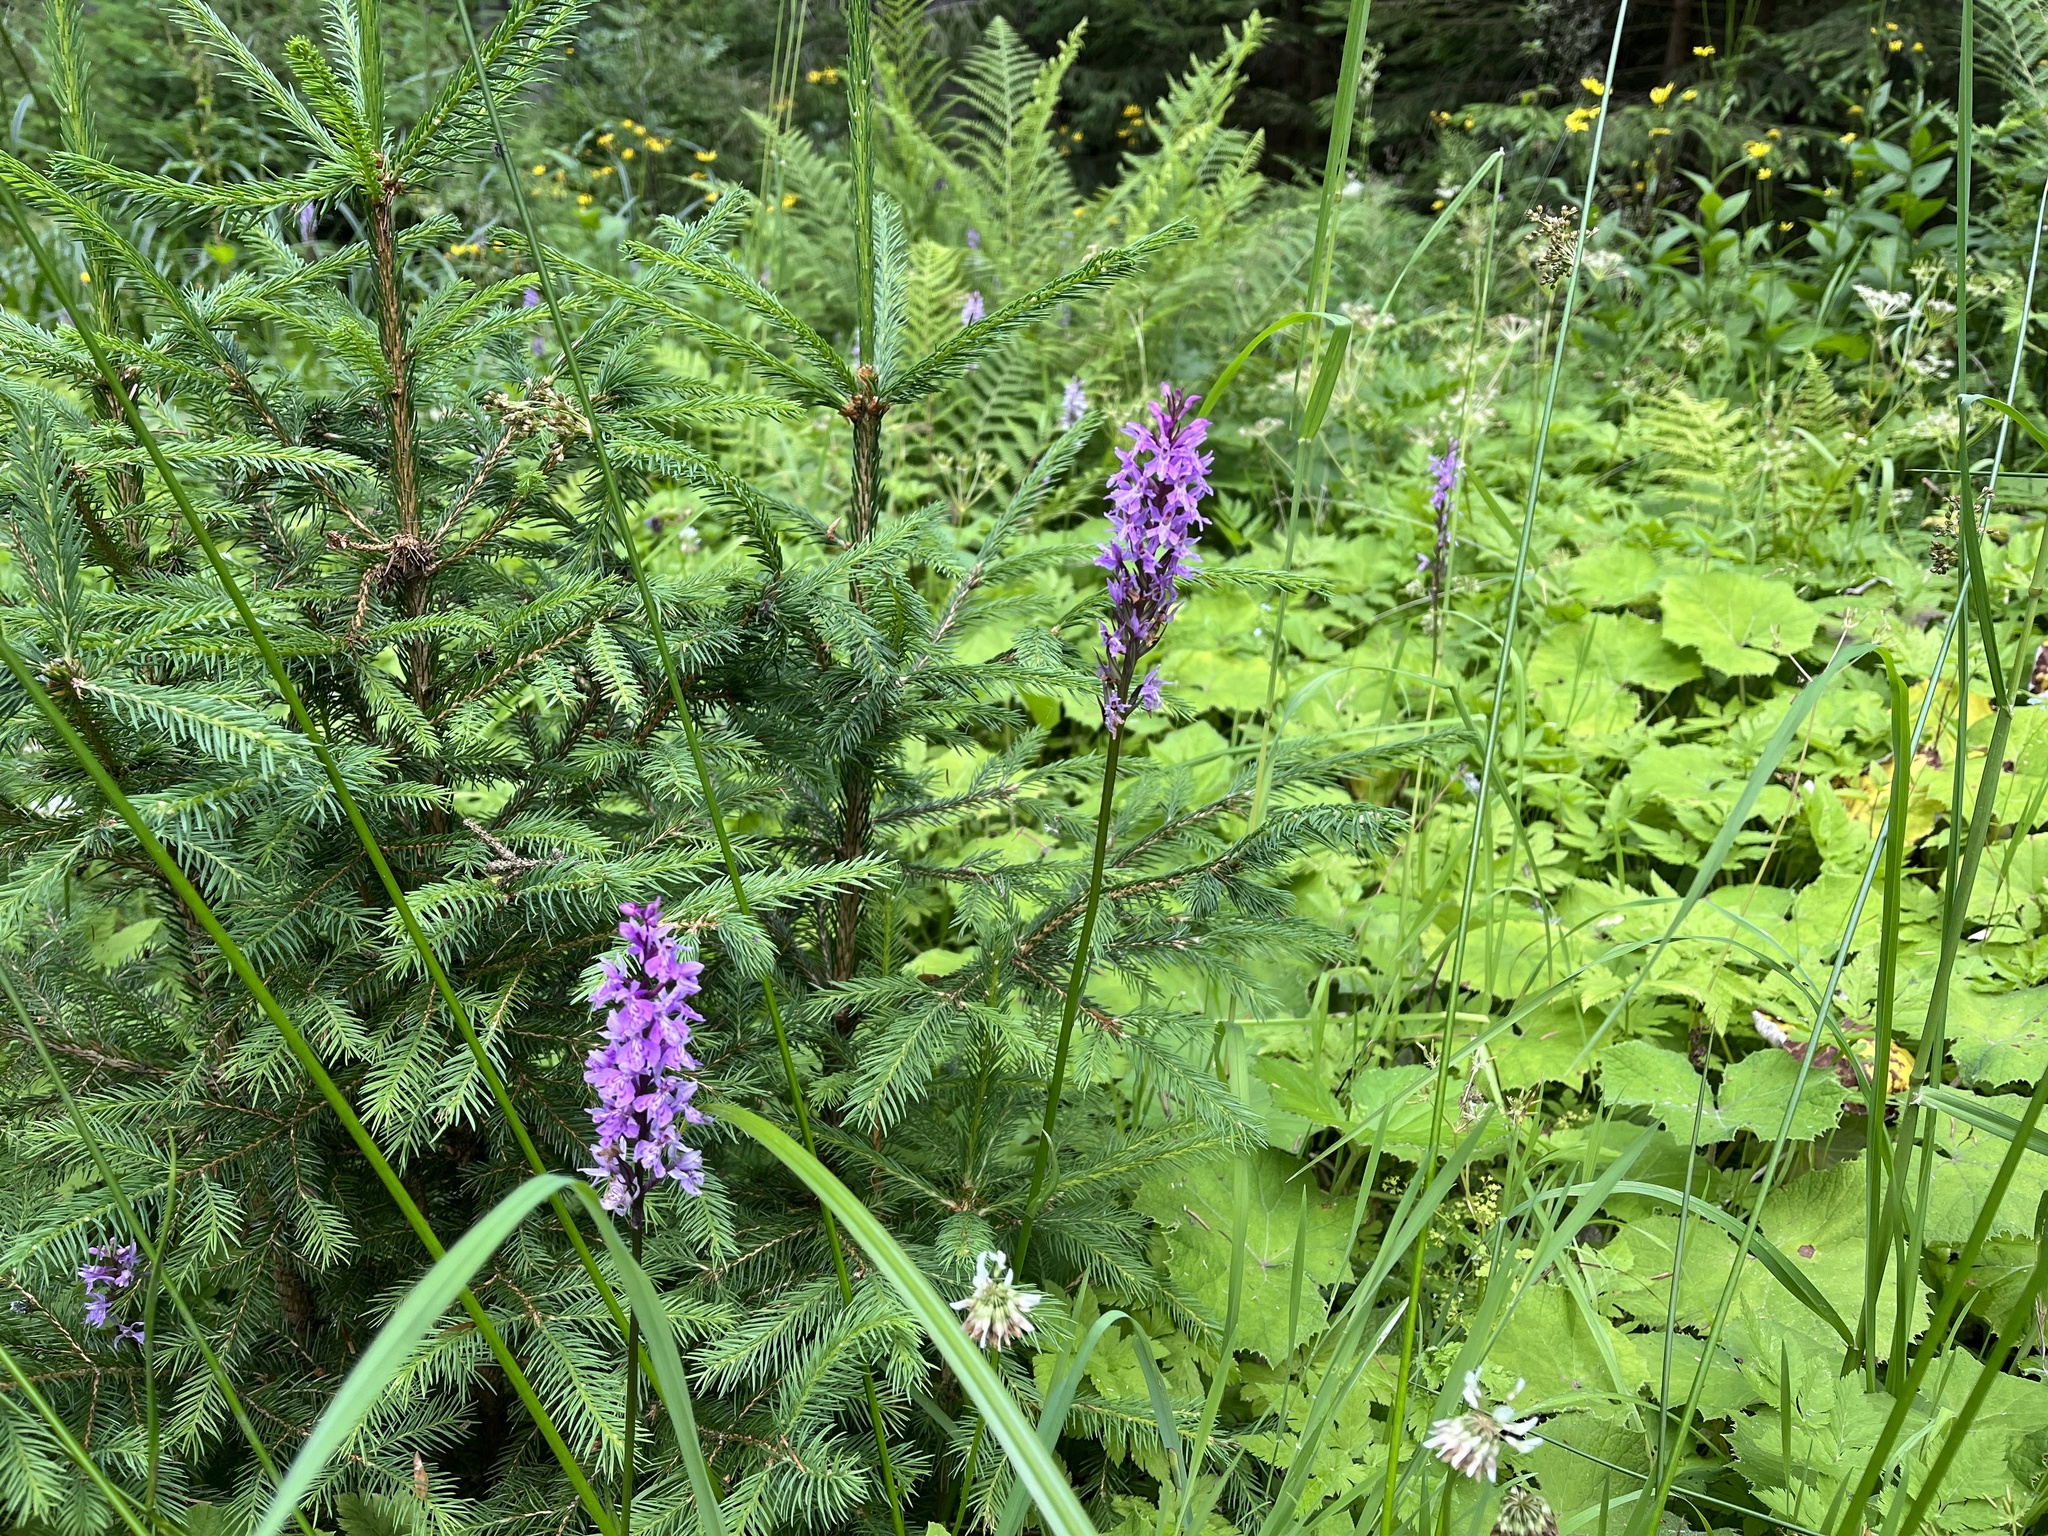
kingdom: Plantae
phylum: Tracheophyta
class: Liliopsida
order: Asparagales
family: Orchidaceae
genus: Dactylorhiza
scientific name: Dactylorhiza maculata
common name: Heath spotted-orchid
